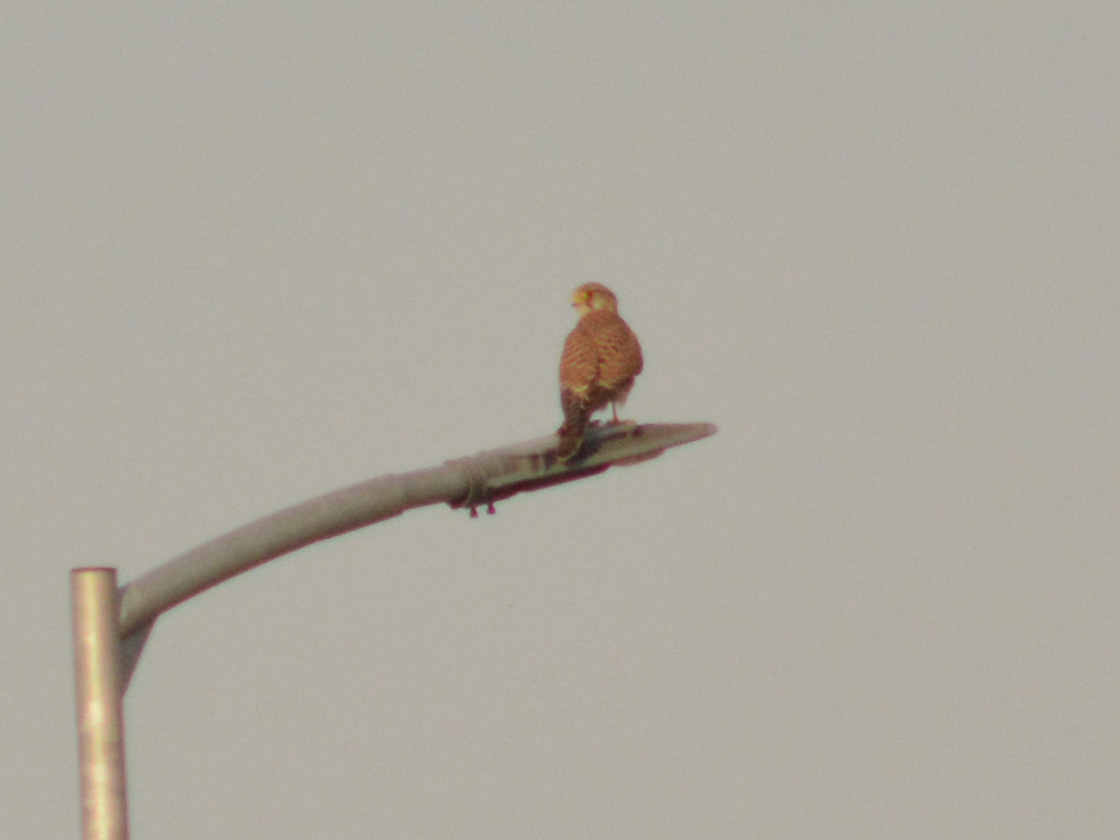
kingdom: Animalia
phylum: Chordata
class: Aves
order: Falconiformes
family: Falconidae
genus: Falco
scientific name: Falco tinnunculus
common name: Common kestrel
